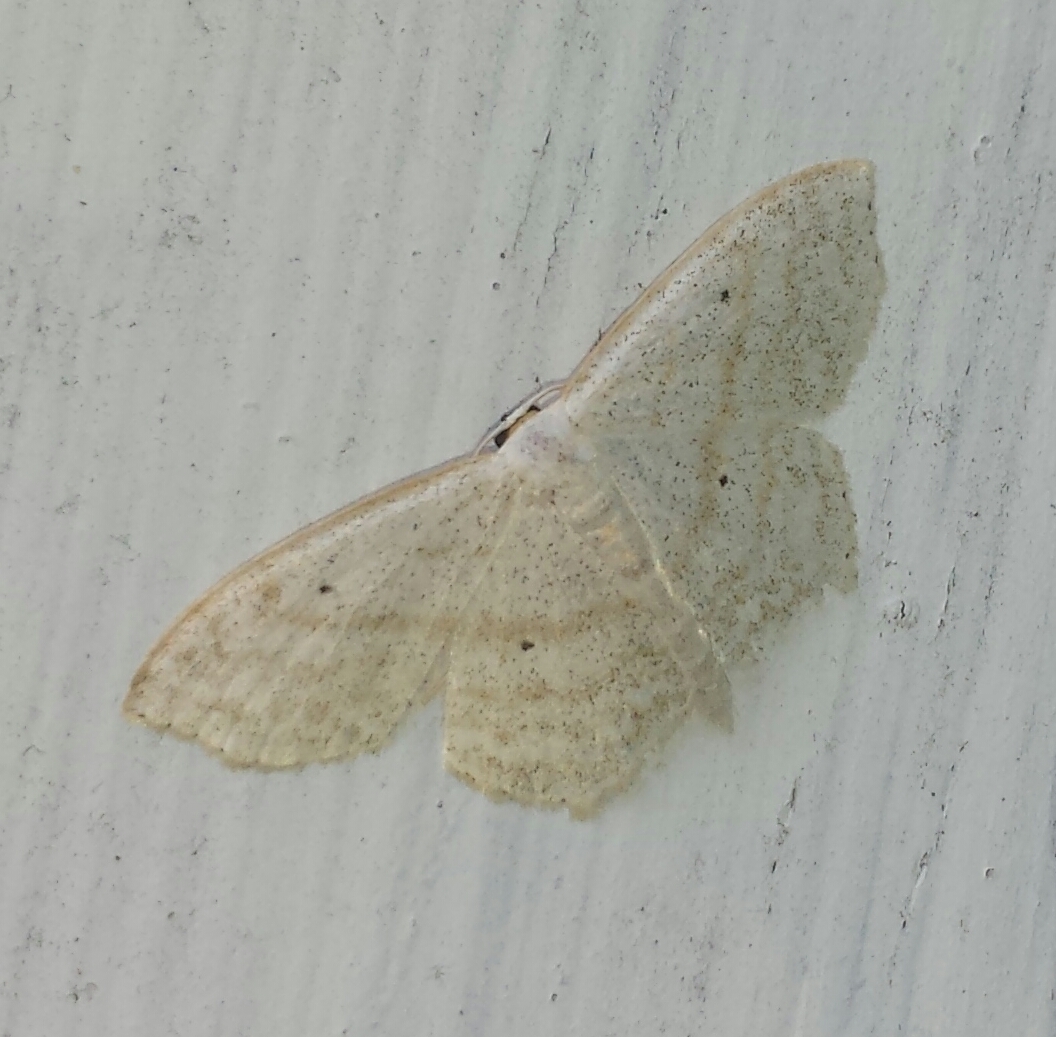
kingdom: Animalia
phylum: Arthropoda
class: Insecta
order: Lepidoptera
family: Geometridae
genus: Scopula
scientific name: Scopula limboundata
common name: Large lace border
